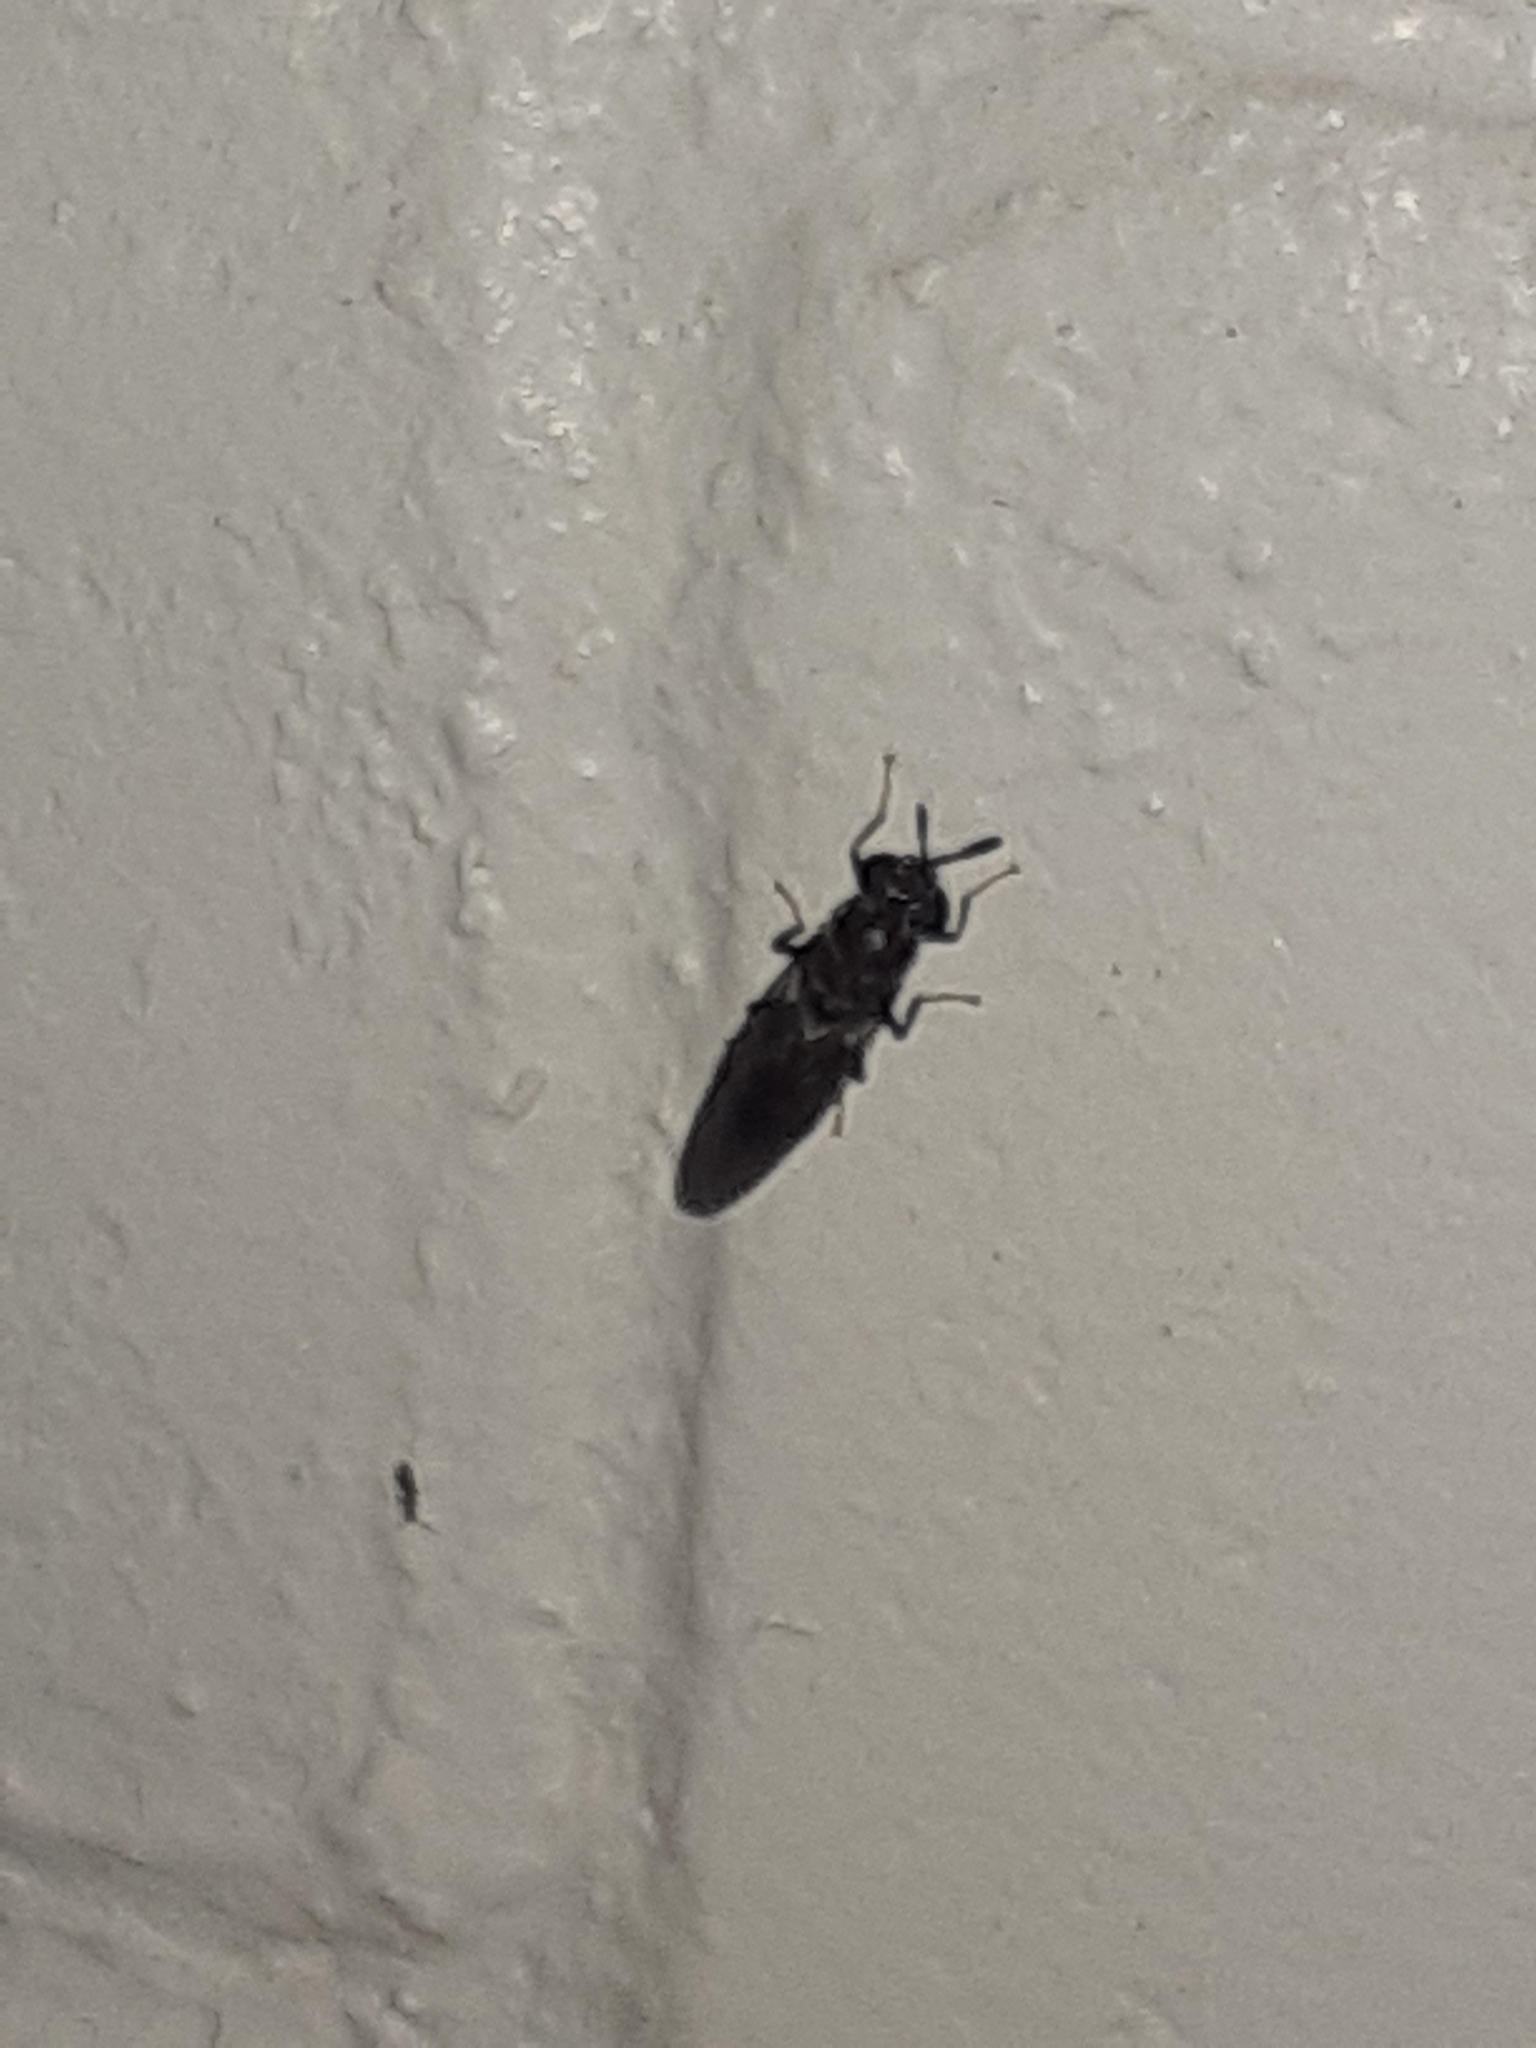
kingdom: Animalia
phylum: Arthropoda
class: Insecta
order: Diptera
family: Stratiomyidae
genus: Hermetia
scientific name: Hermetia illucens
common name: Black soldier fly
